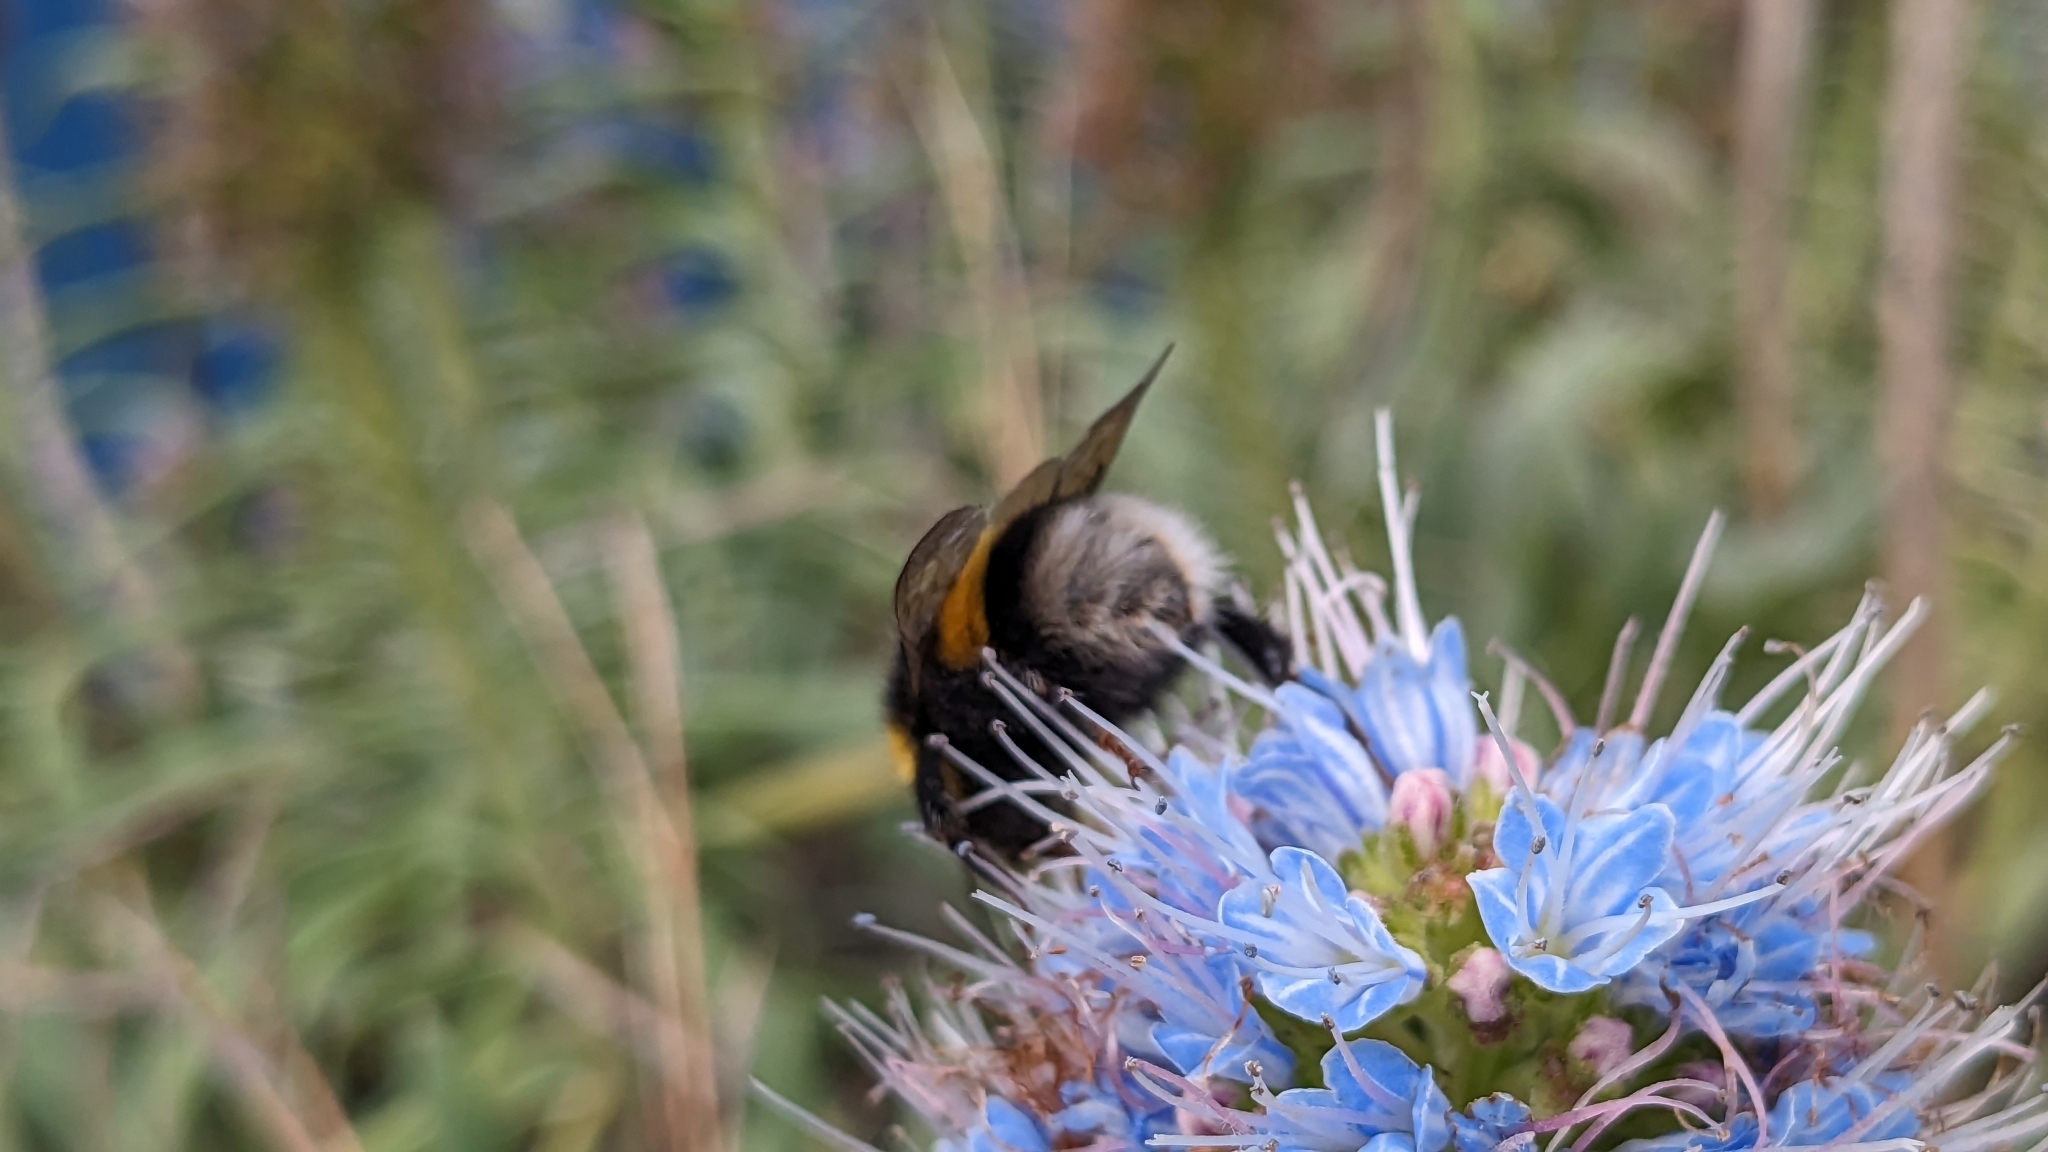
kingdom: Animalia
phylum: Arthropoda
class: Insecta
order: Hymenoptera
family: Apidae
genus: Bombus
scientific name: Bombus terrestris
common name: Buff-tailed bumblebee
